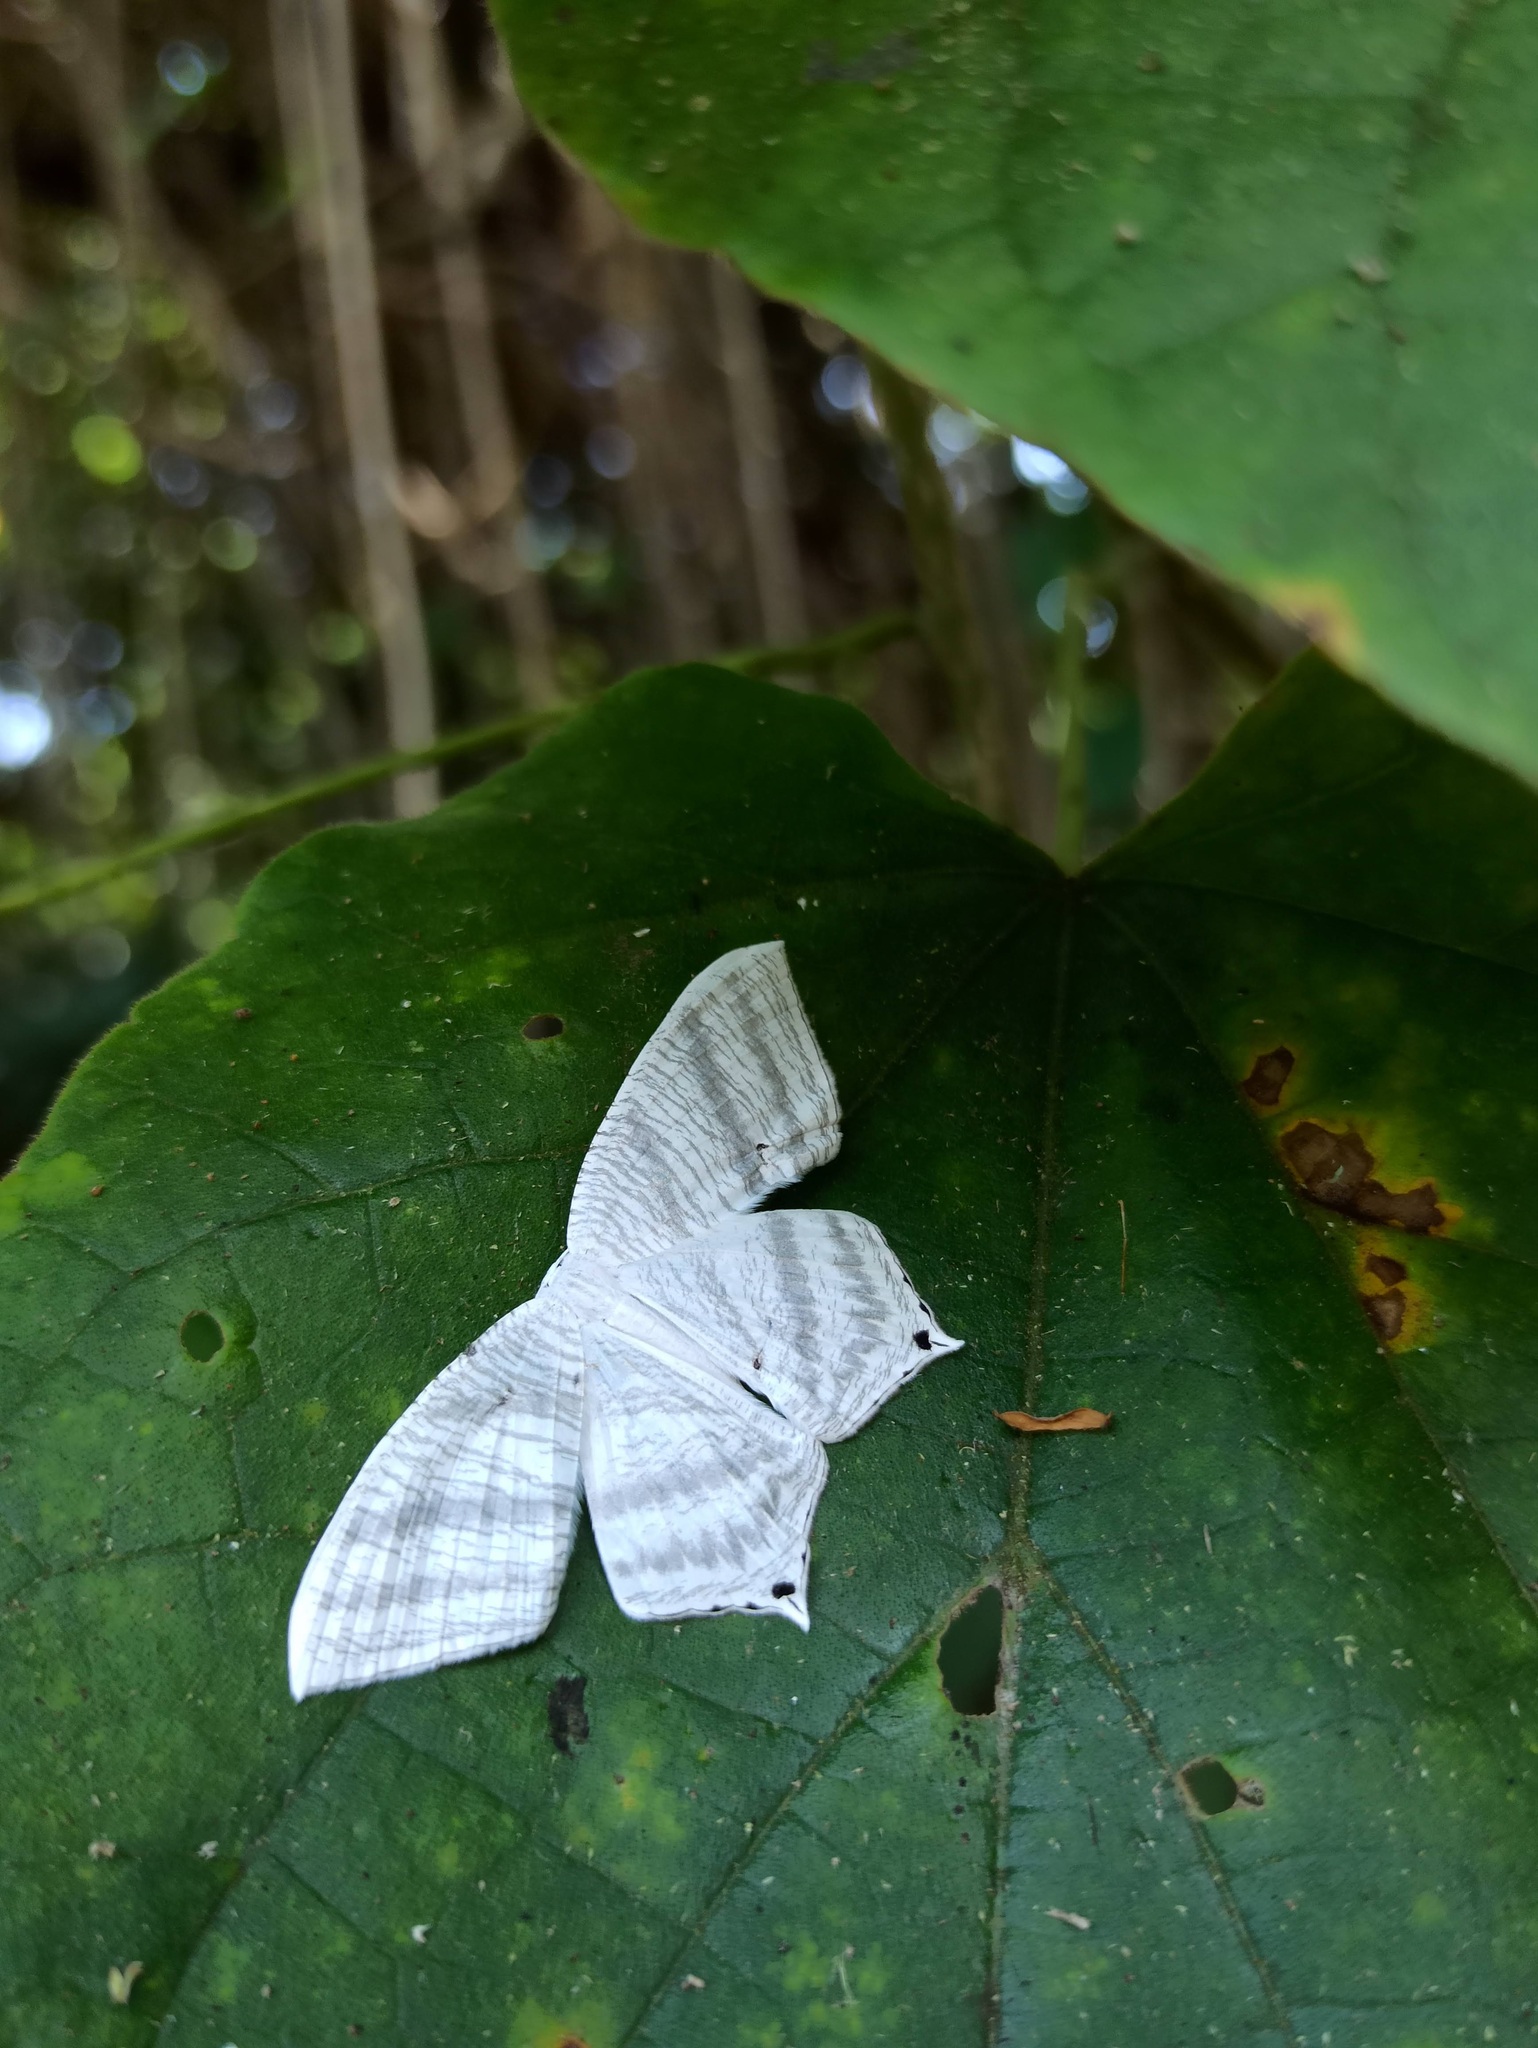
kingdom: Animalia
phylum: Arthropoda
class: Insecta
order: Lepidoptera
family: Uraniidae
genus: Micronia
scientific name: Micronia aculeata
